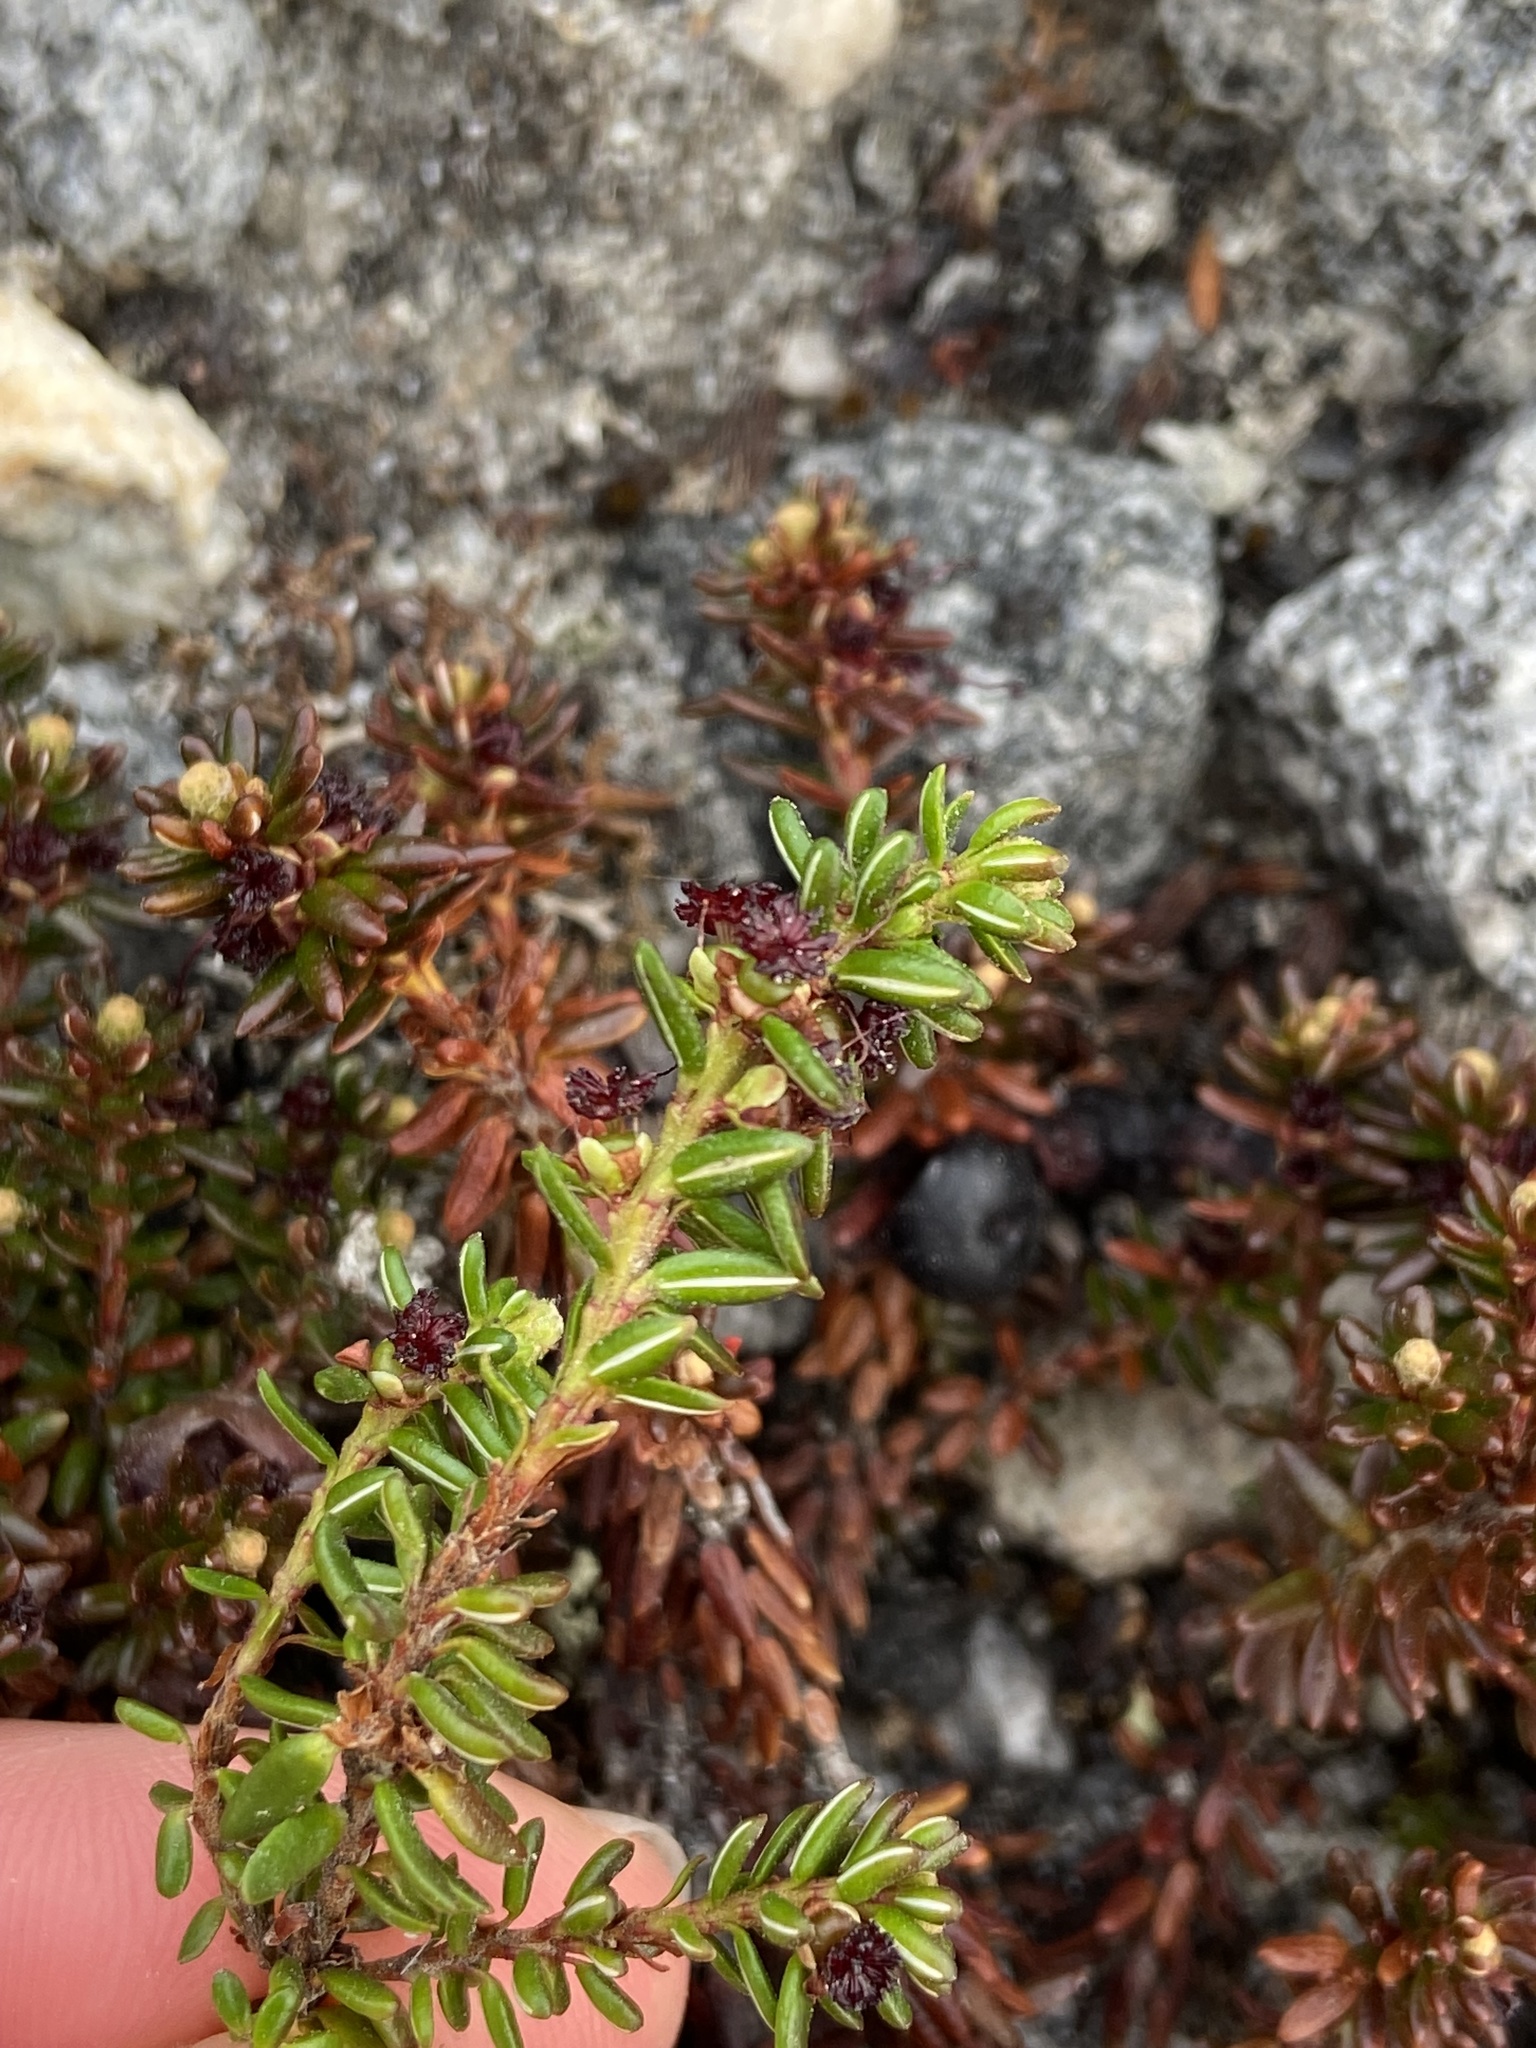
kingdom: Plantae
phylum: Tracheophyta
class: Magnoliopsida
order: Ericales
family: Ericaceae
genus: Empetrum
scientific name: Empetrum nigrum
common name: Black crowberry
